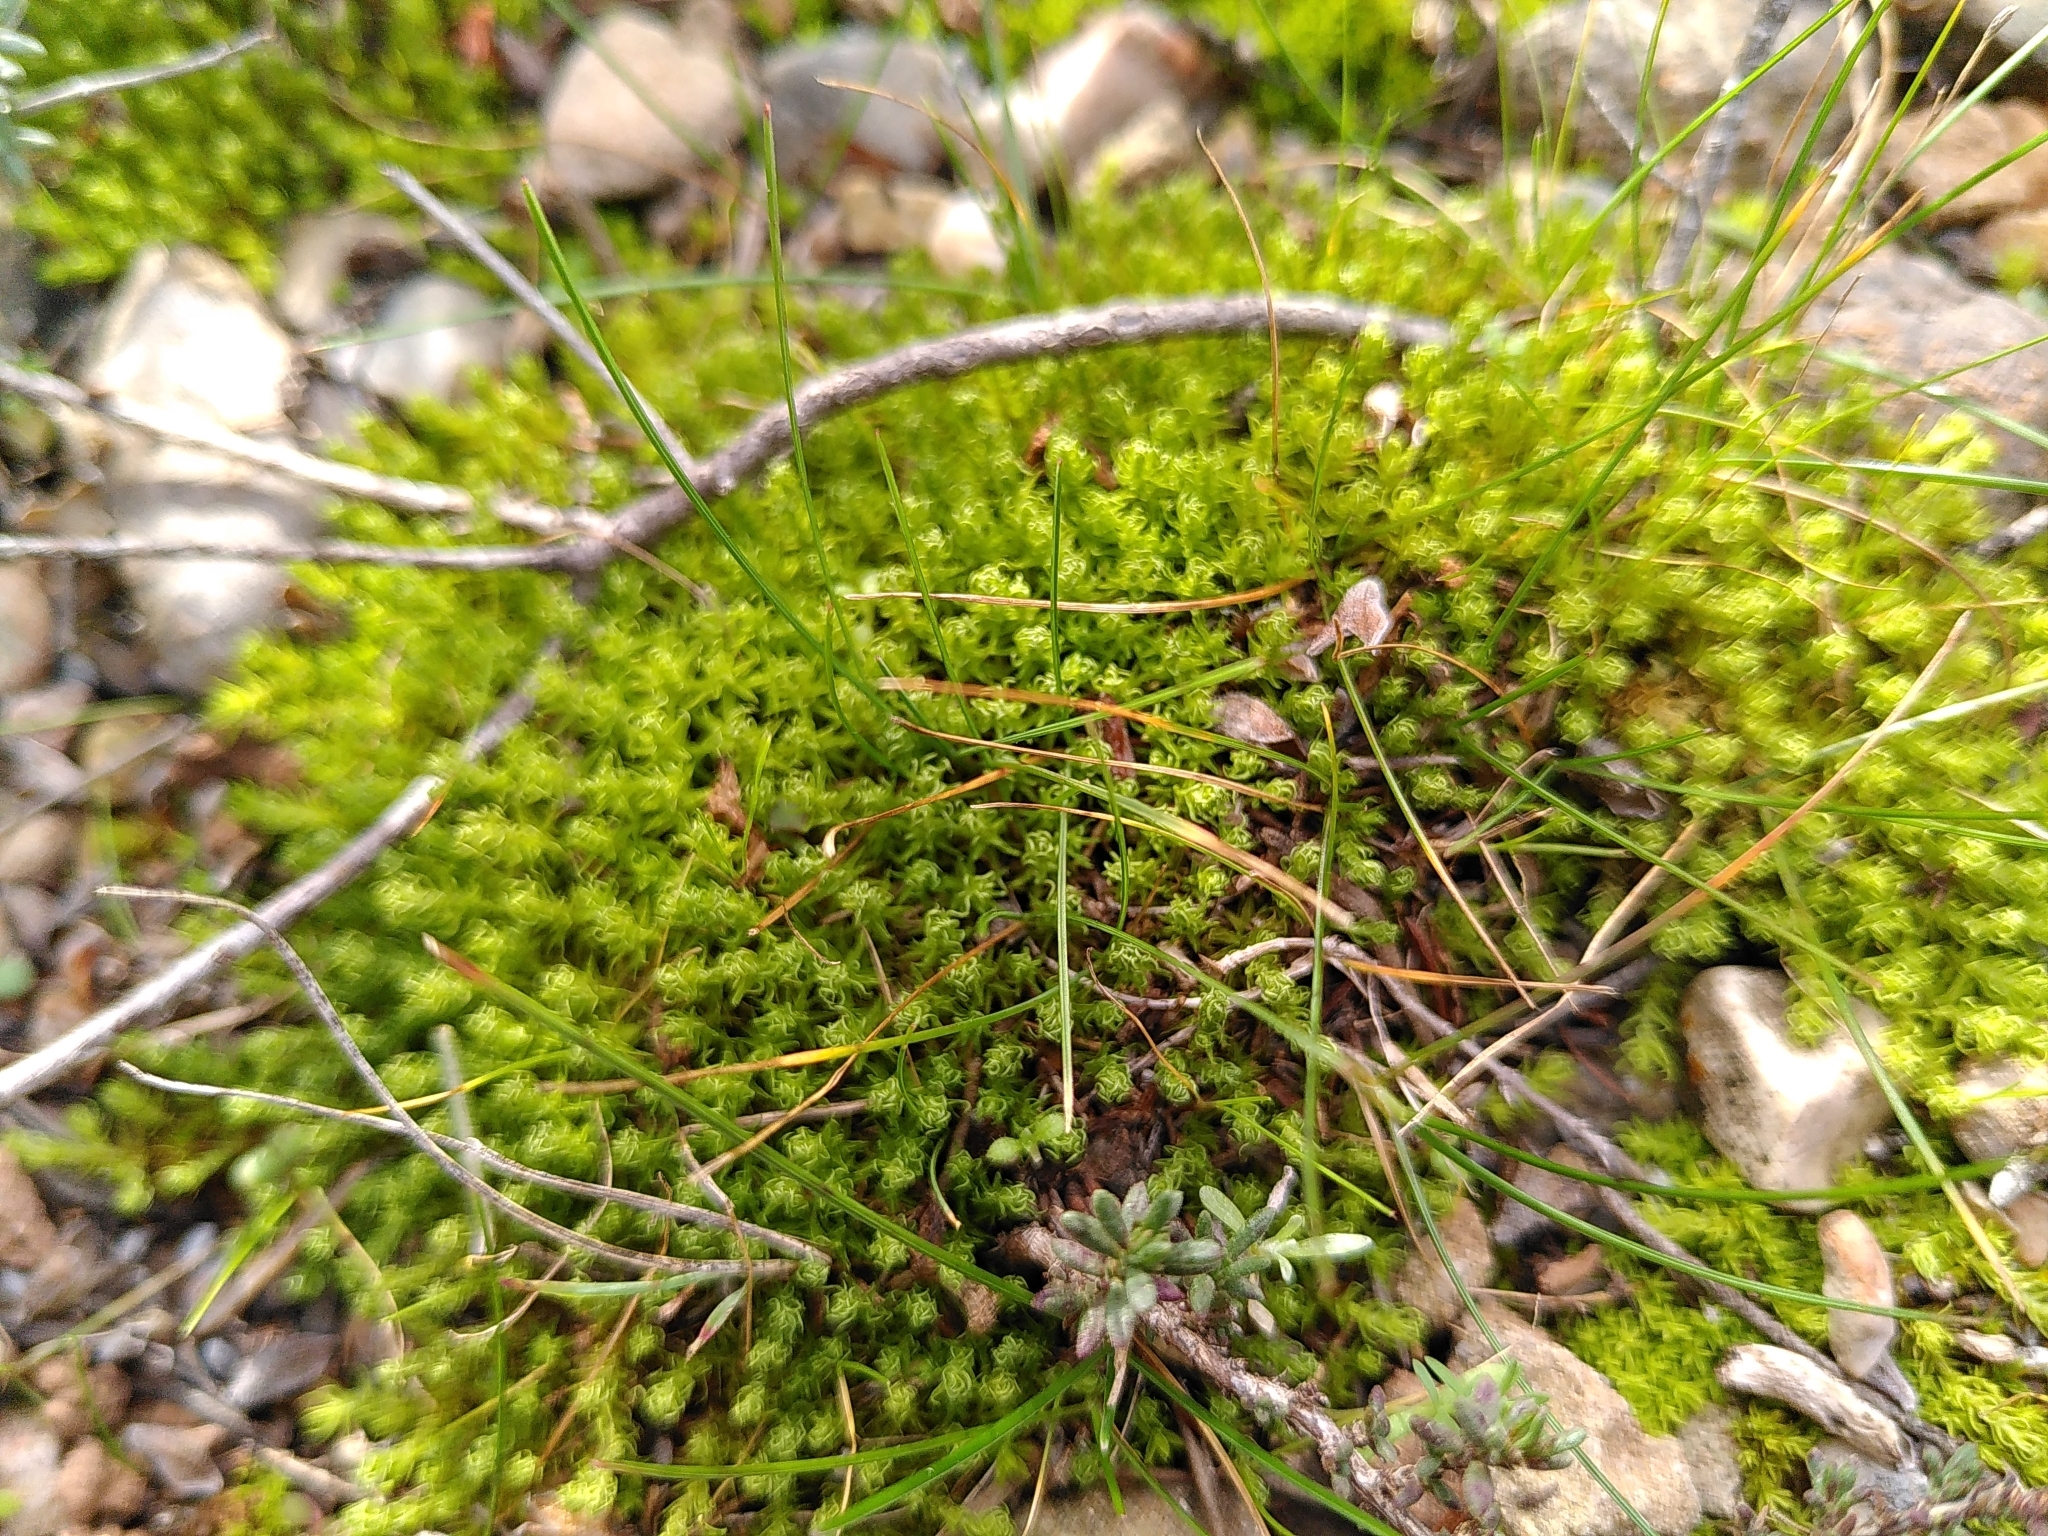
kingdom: Plantae
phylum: Bryophyta
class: Bryopsida
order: Pottiales
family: Pottiaceae
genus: Pleurochaete
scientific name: Pleurochaete squarrosa
